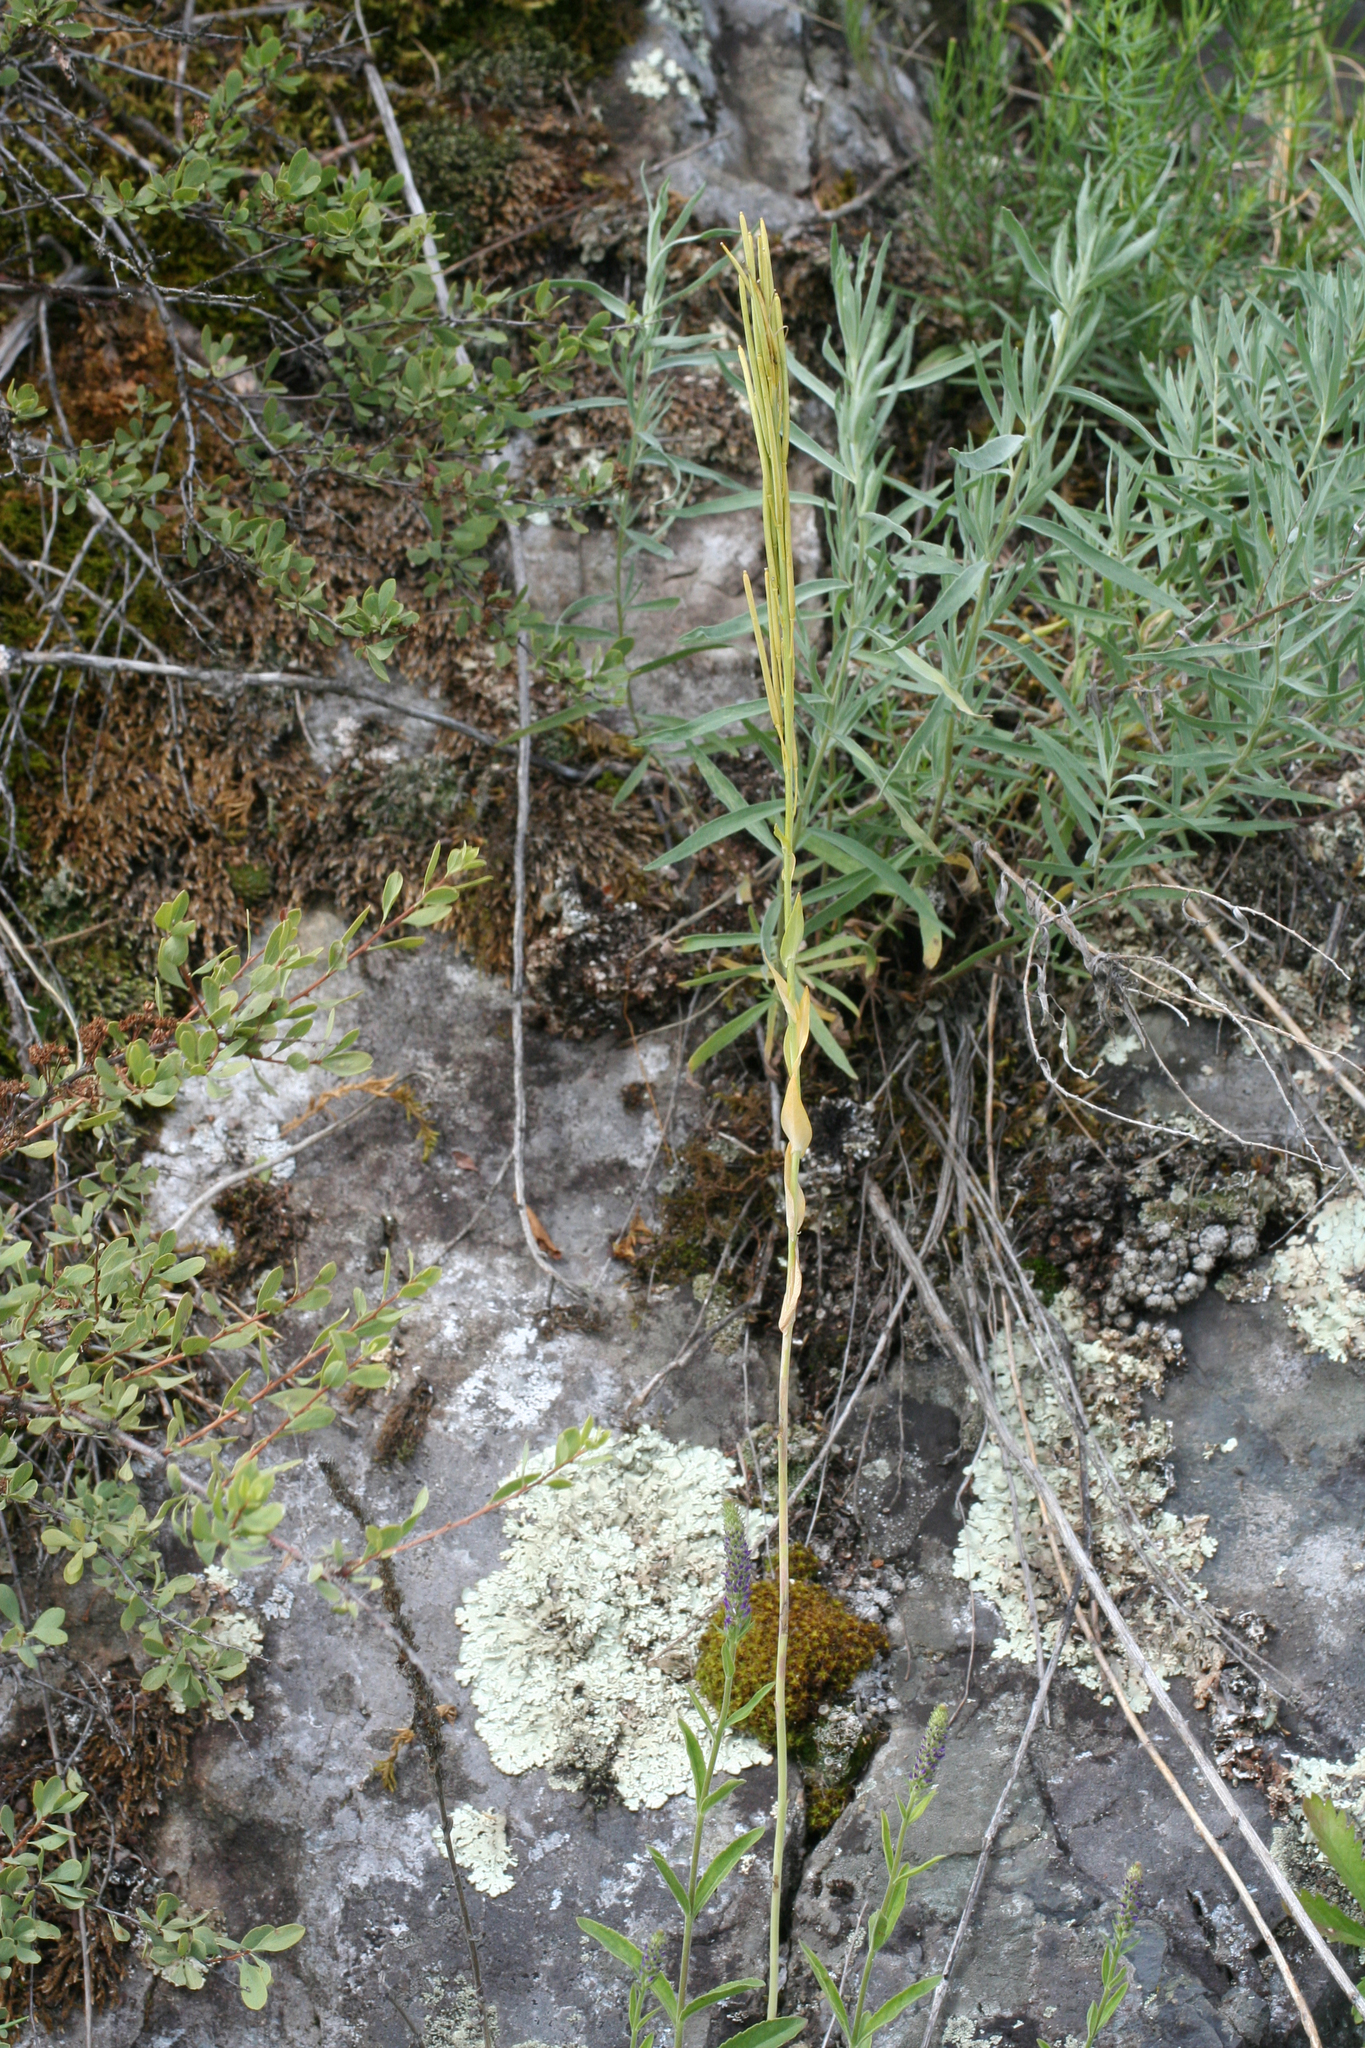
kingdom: Plantae
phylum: Tracheophyta
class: Magnoliopsida
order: Brassicales
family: Brassicaceae
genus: Turritis
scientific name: Turritis glabra
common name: Tower rockcress
